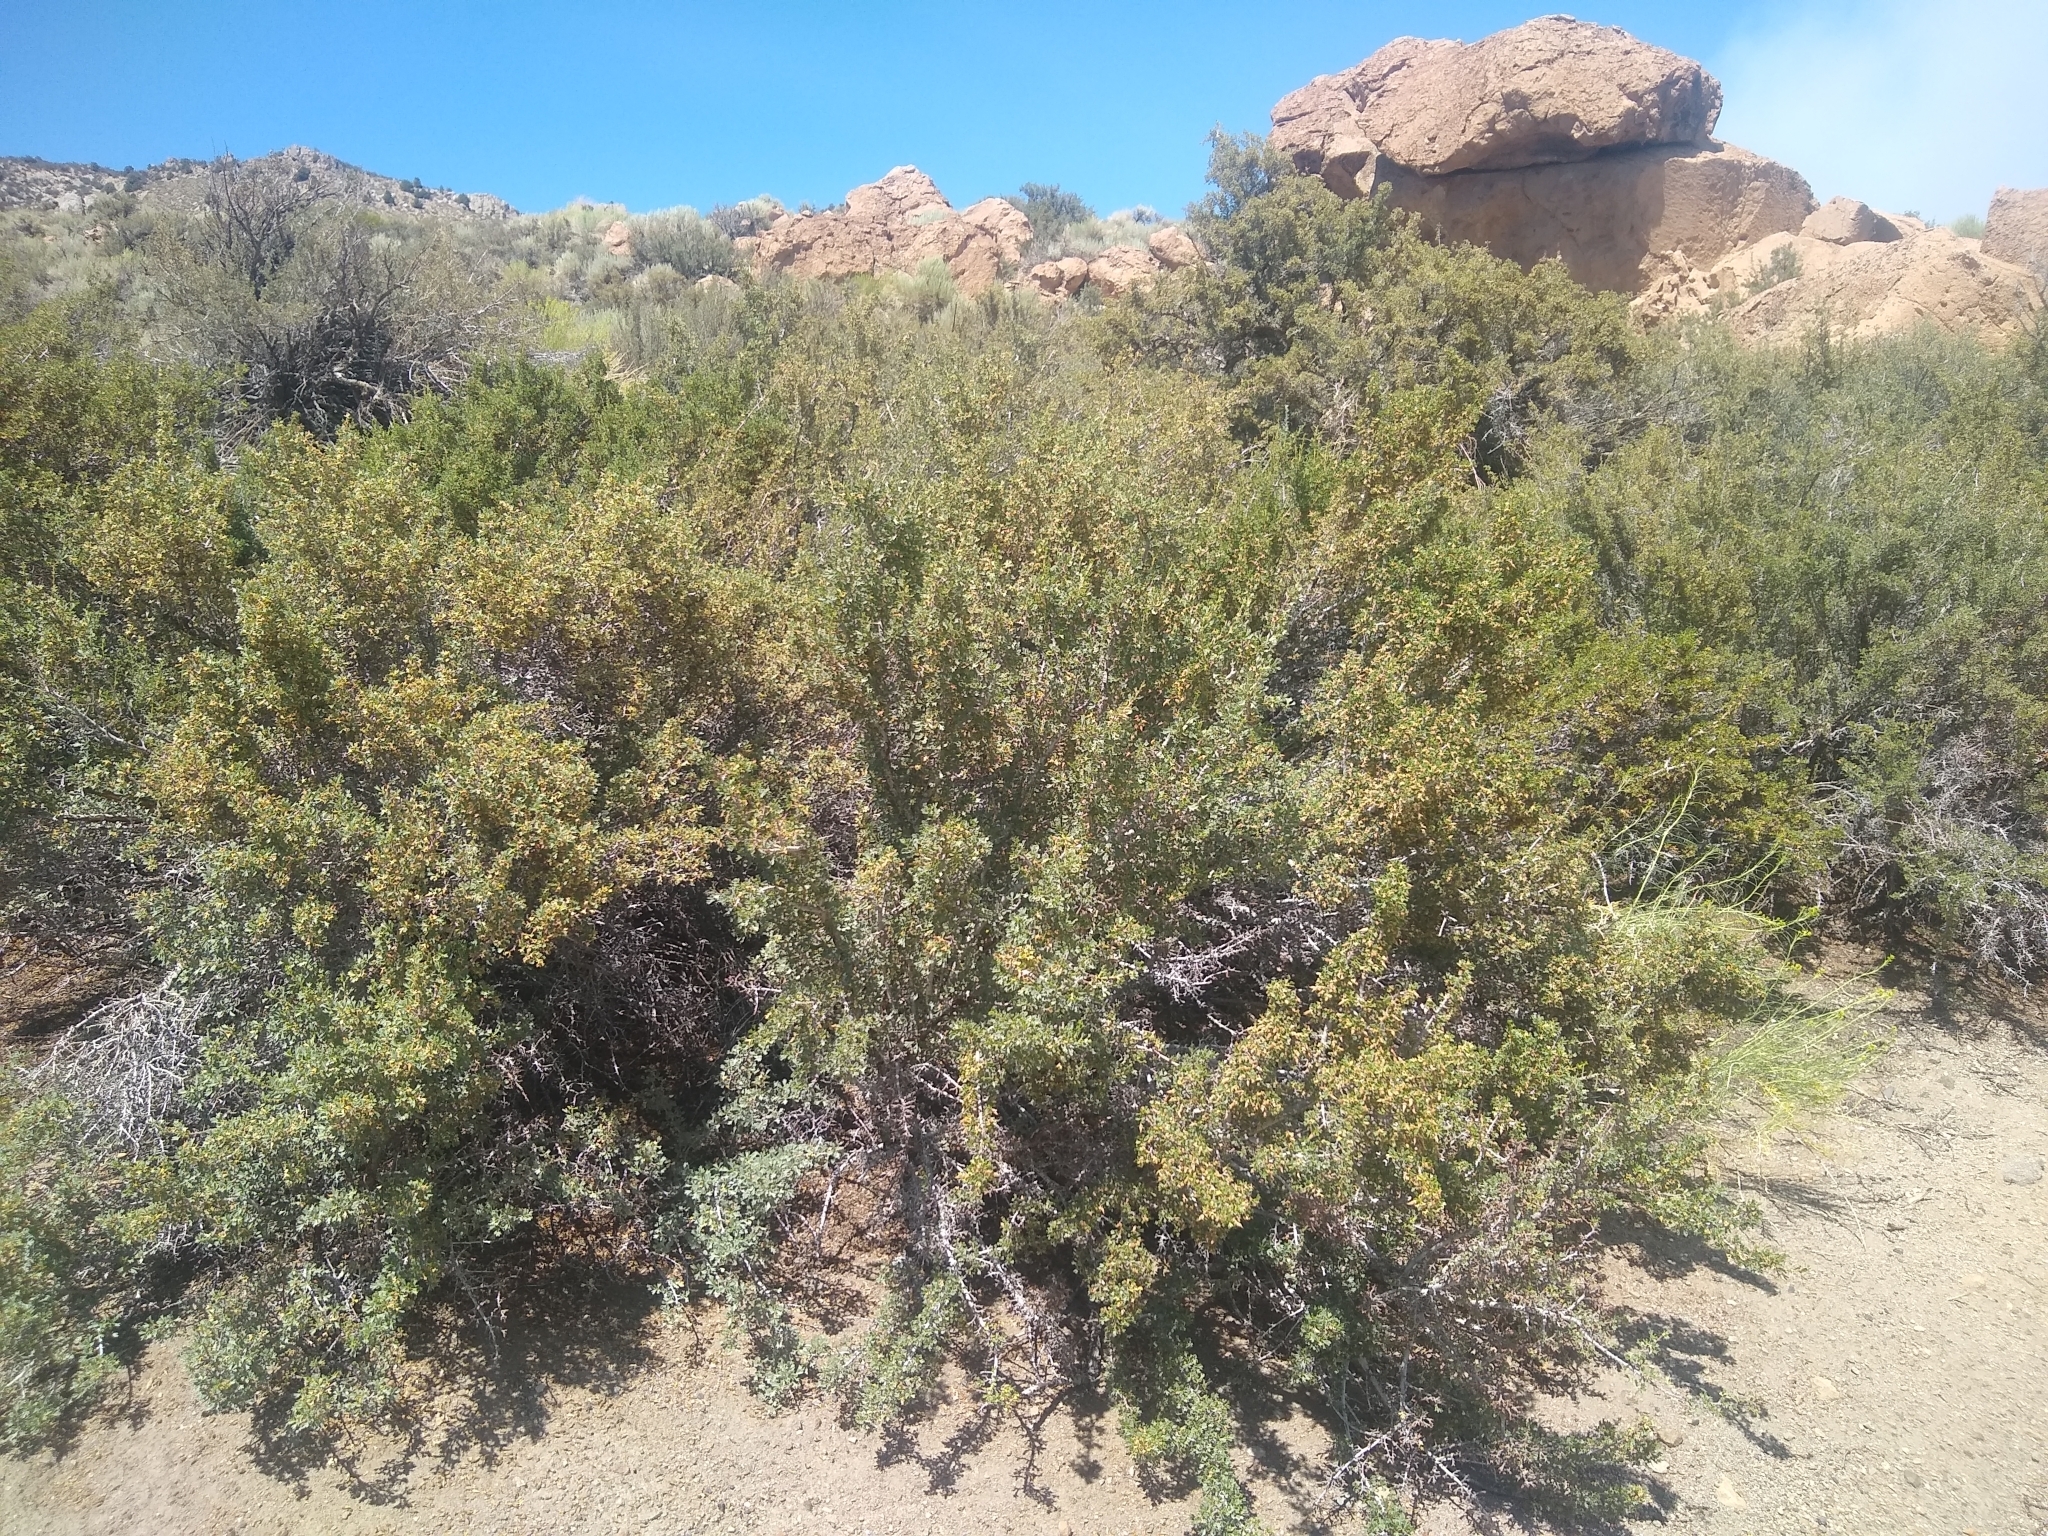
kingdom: Plantae
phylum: Tracheophyta
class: Magnoliopsida
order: Rosales
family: Rosaceae
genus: Purshia
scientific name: Purshia tridentata
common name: Antelope bitterbrush
